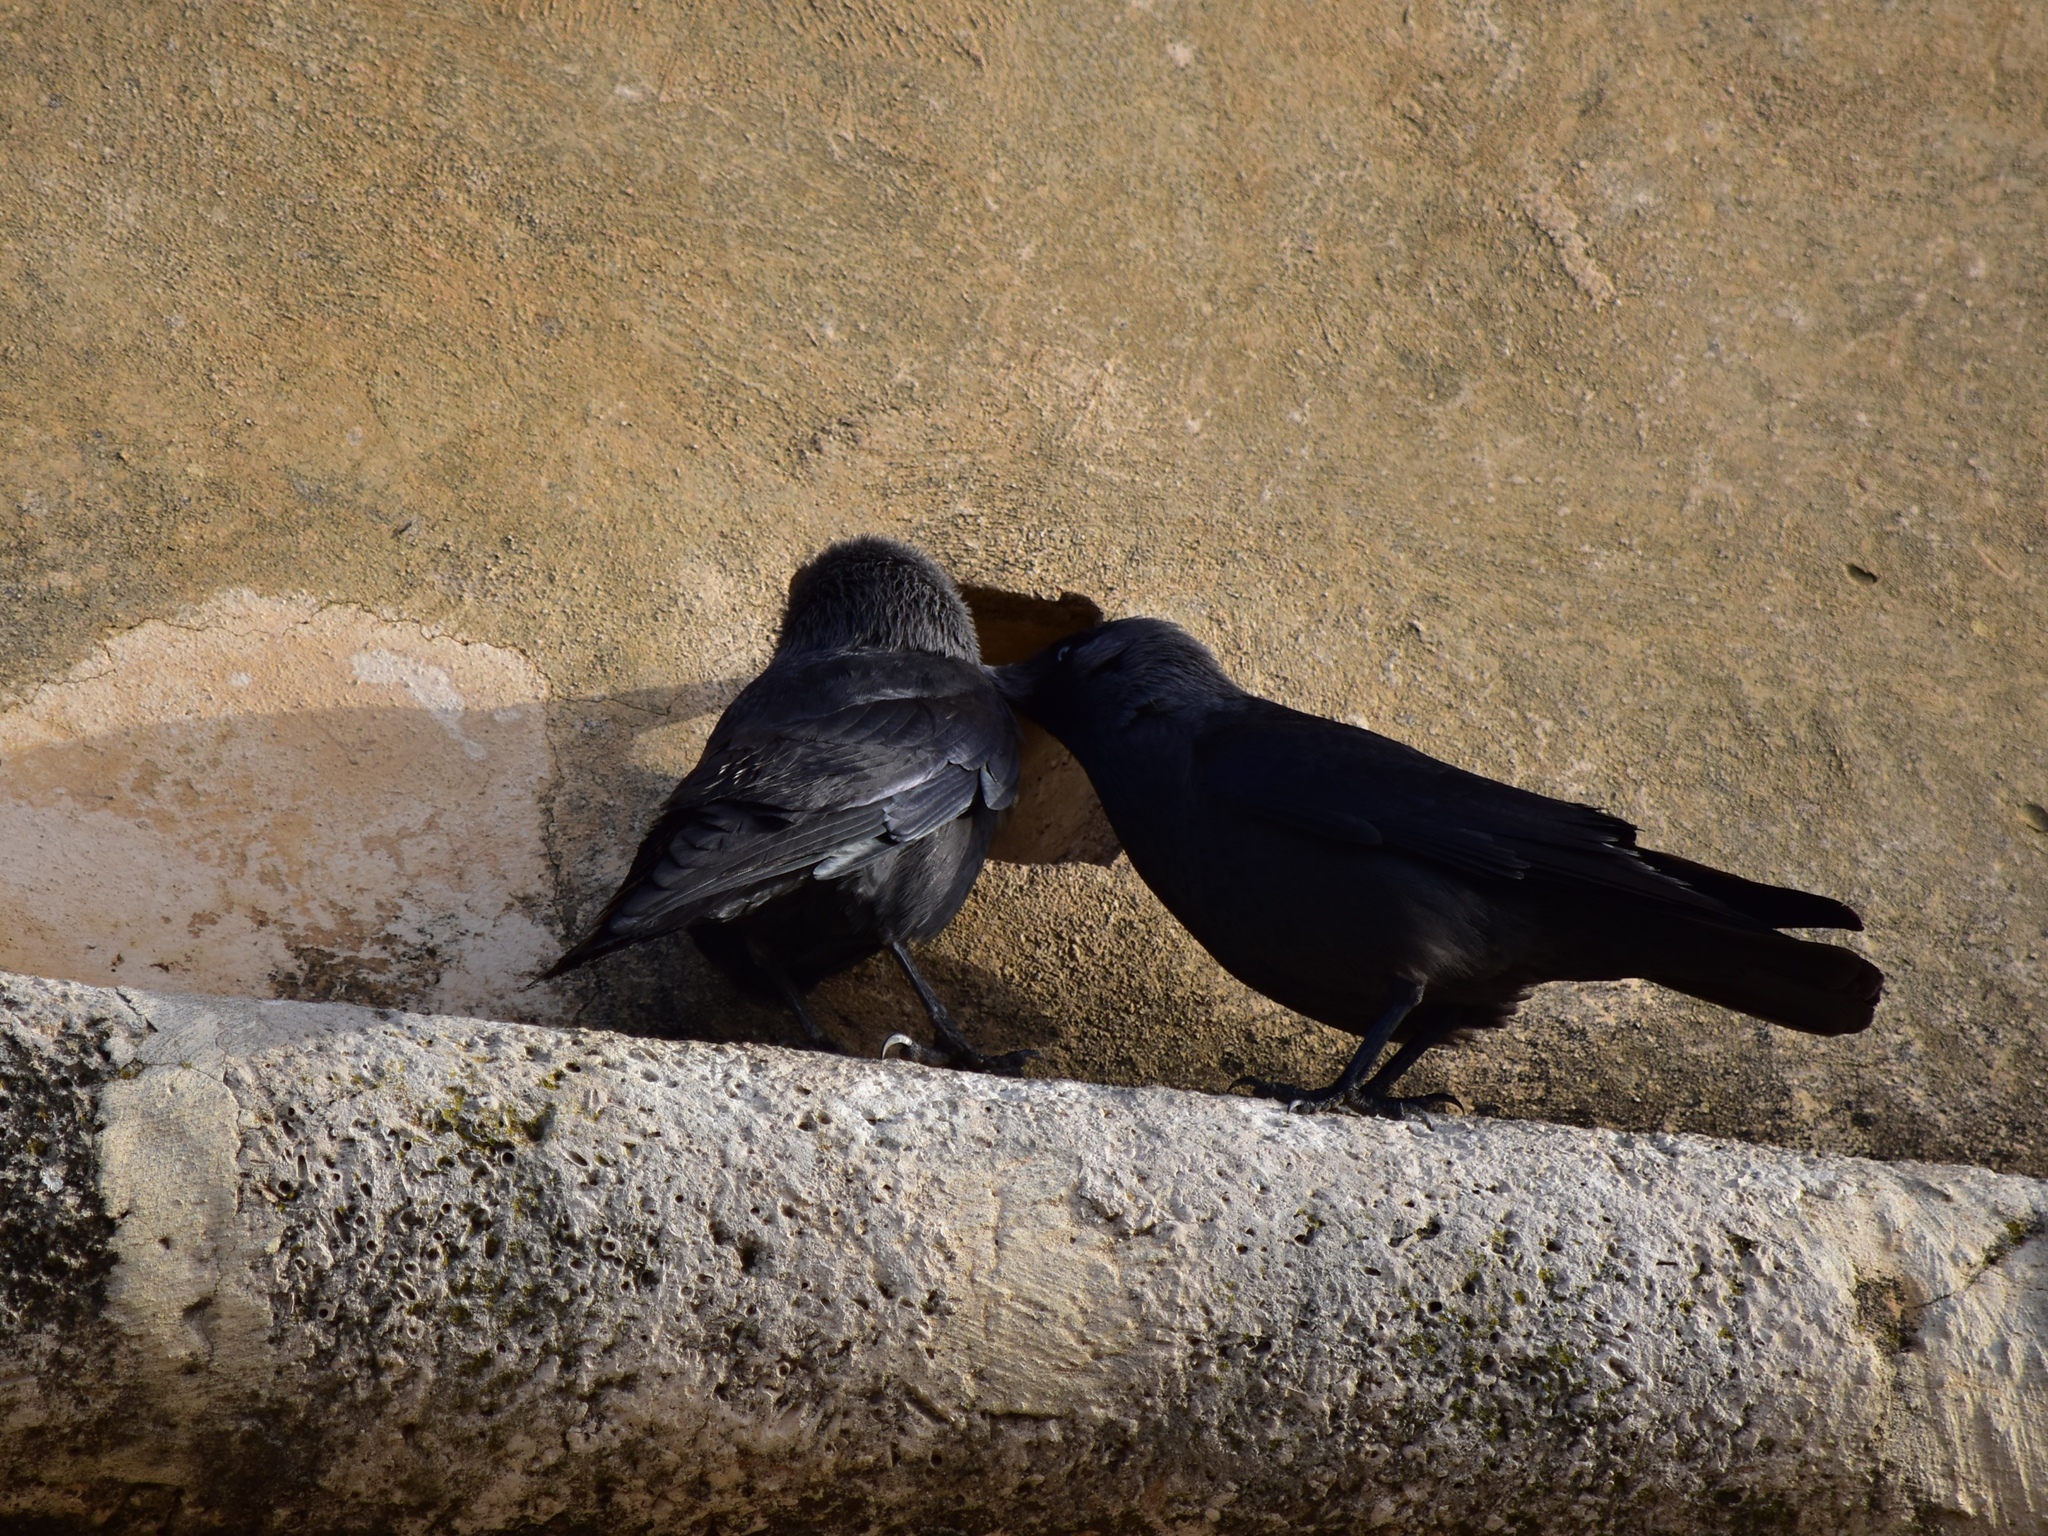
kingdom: Animalia
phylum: Chordata
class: Aves
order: Passeriformes
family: Corvidae
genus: Coloeus
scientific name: Coloeus monedula
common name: Western jackdaw
